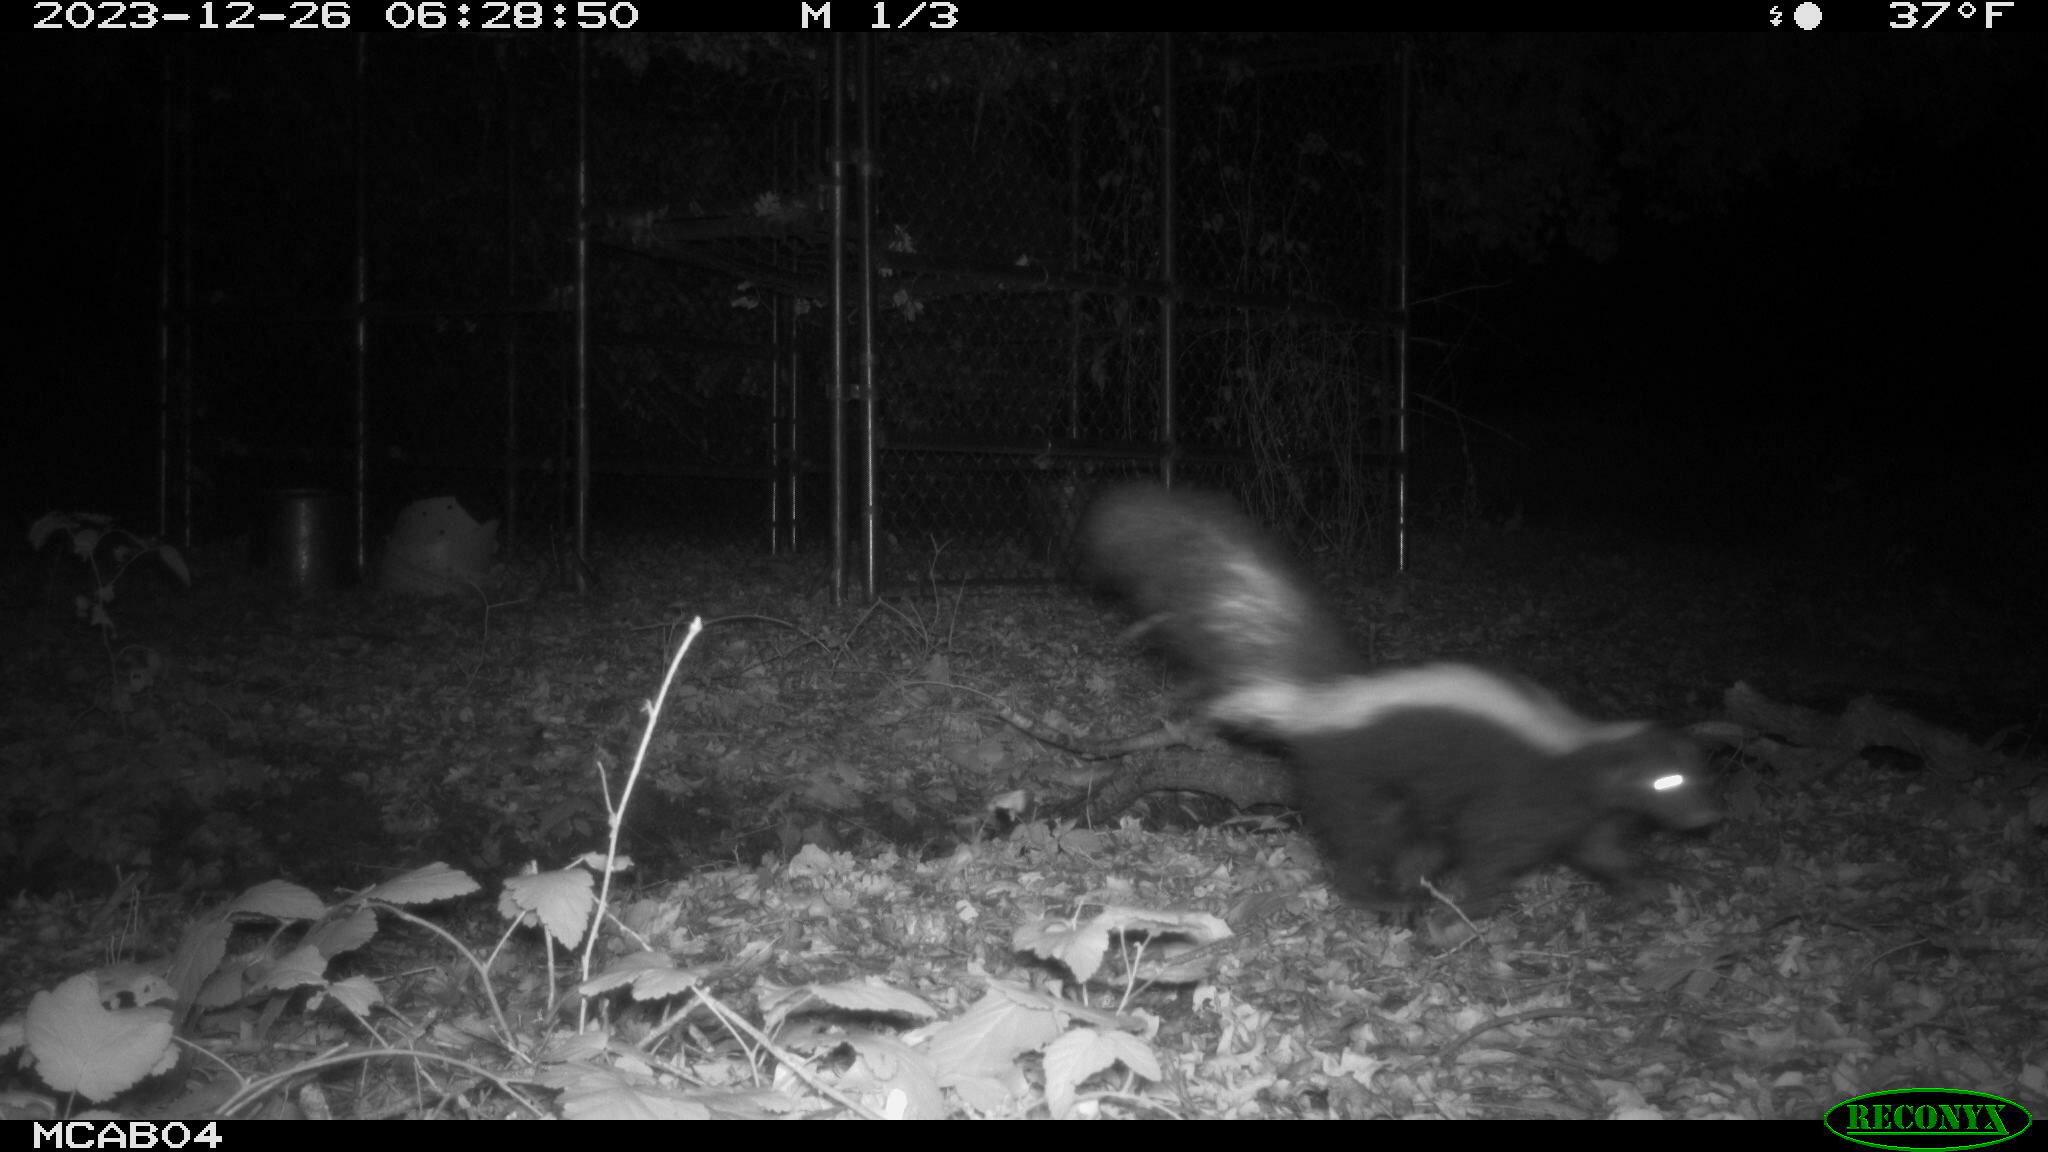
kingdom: Animalia
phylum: Chordata
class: Mammalia
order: Carnivora
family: Mephitidae
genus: Mephitis
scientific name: Mephitis mephitis
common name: Striped skunk
